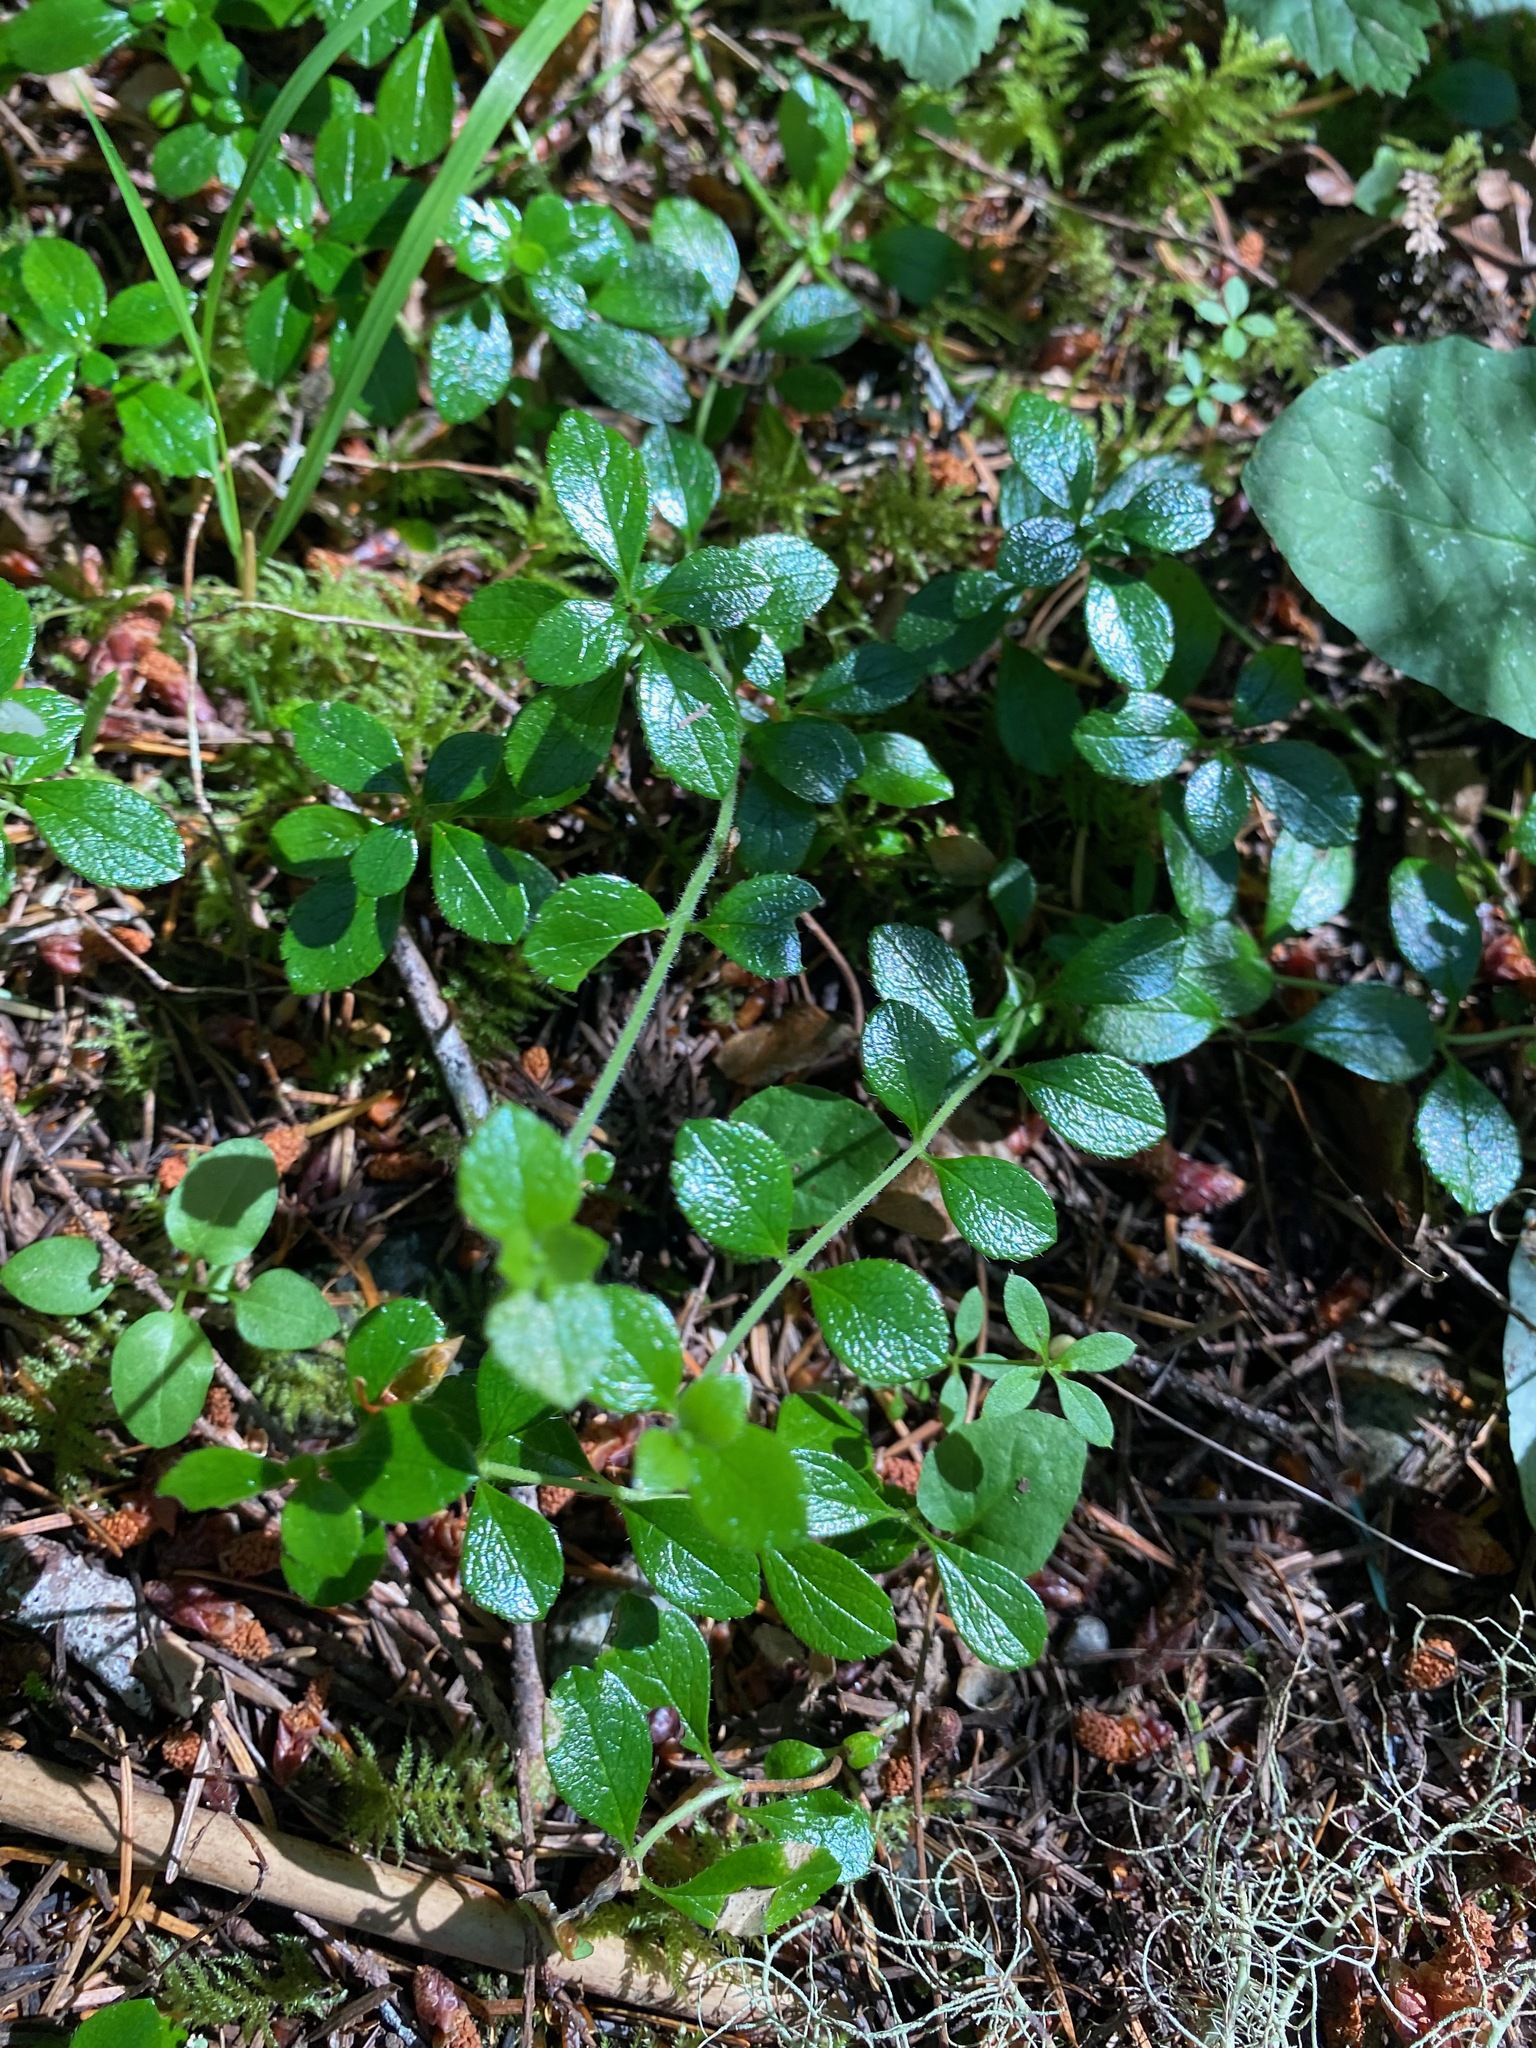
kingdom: Plantae
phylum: Tracheophyta
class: Magnoliopsida
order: Dipsacales
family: Caprifoliaceae
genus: Linnaea
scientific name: Linnaea borealis
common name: Twinflower
